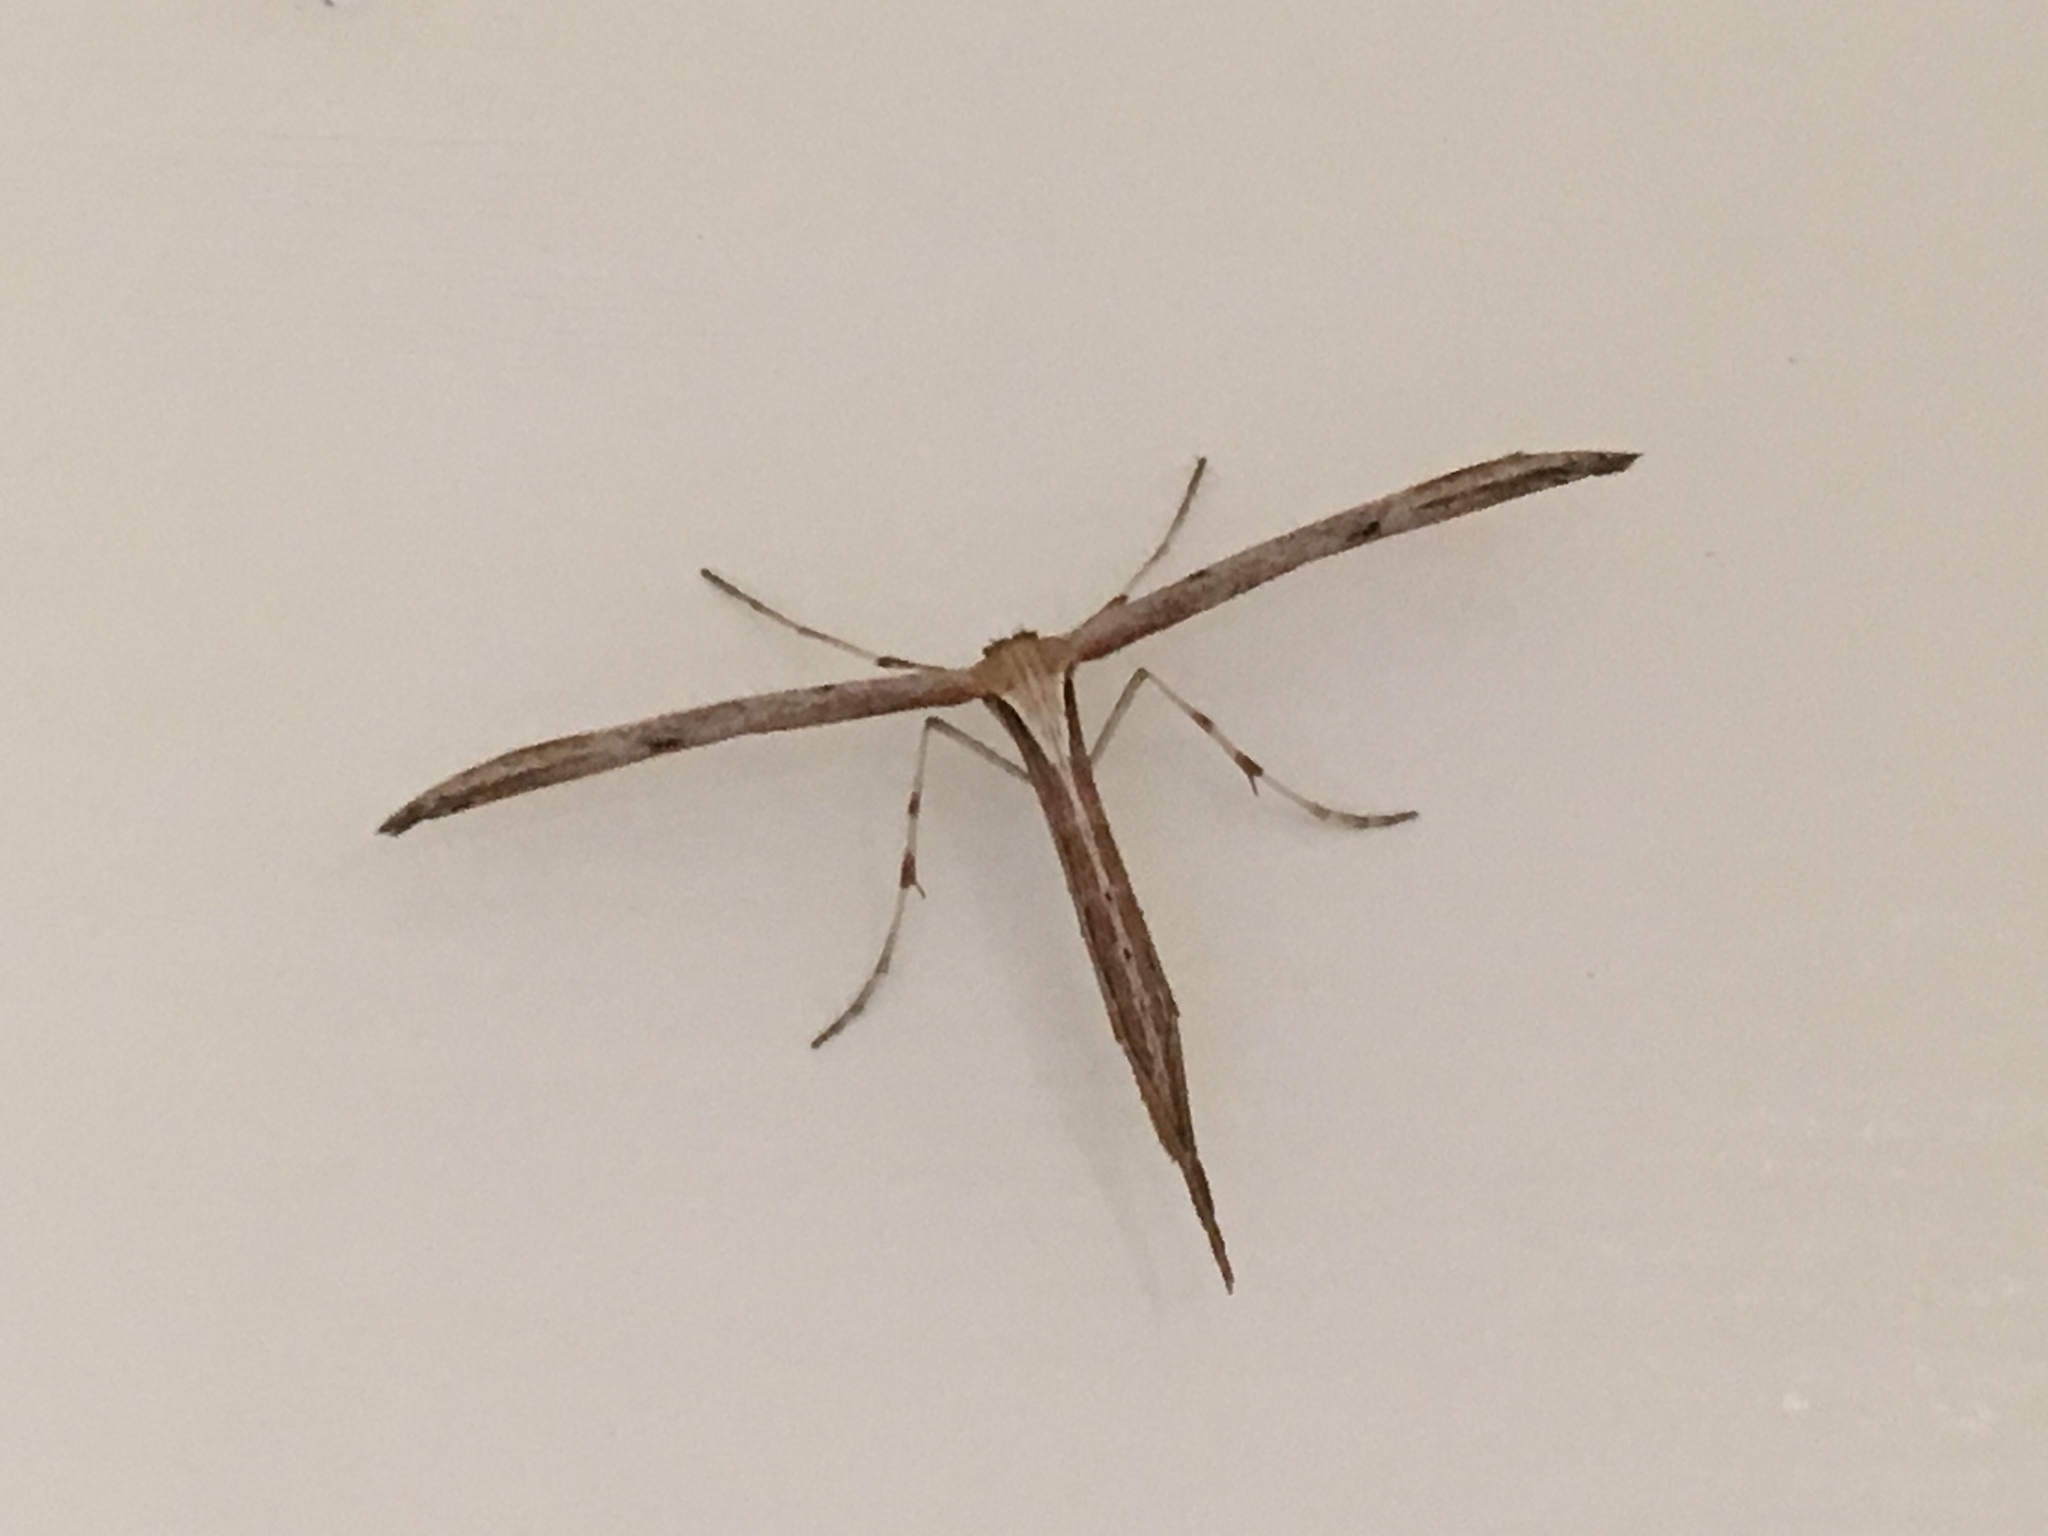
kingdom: Animalia
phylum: Arthropoda
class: Insecta
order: Lepidoptera
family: Pterophoridae
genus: Emmelina
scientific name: Emmelina monodactyla
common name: Common plume
